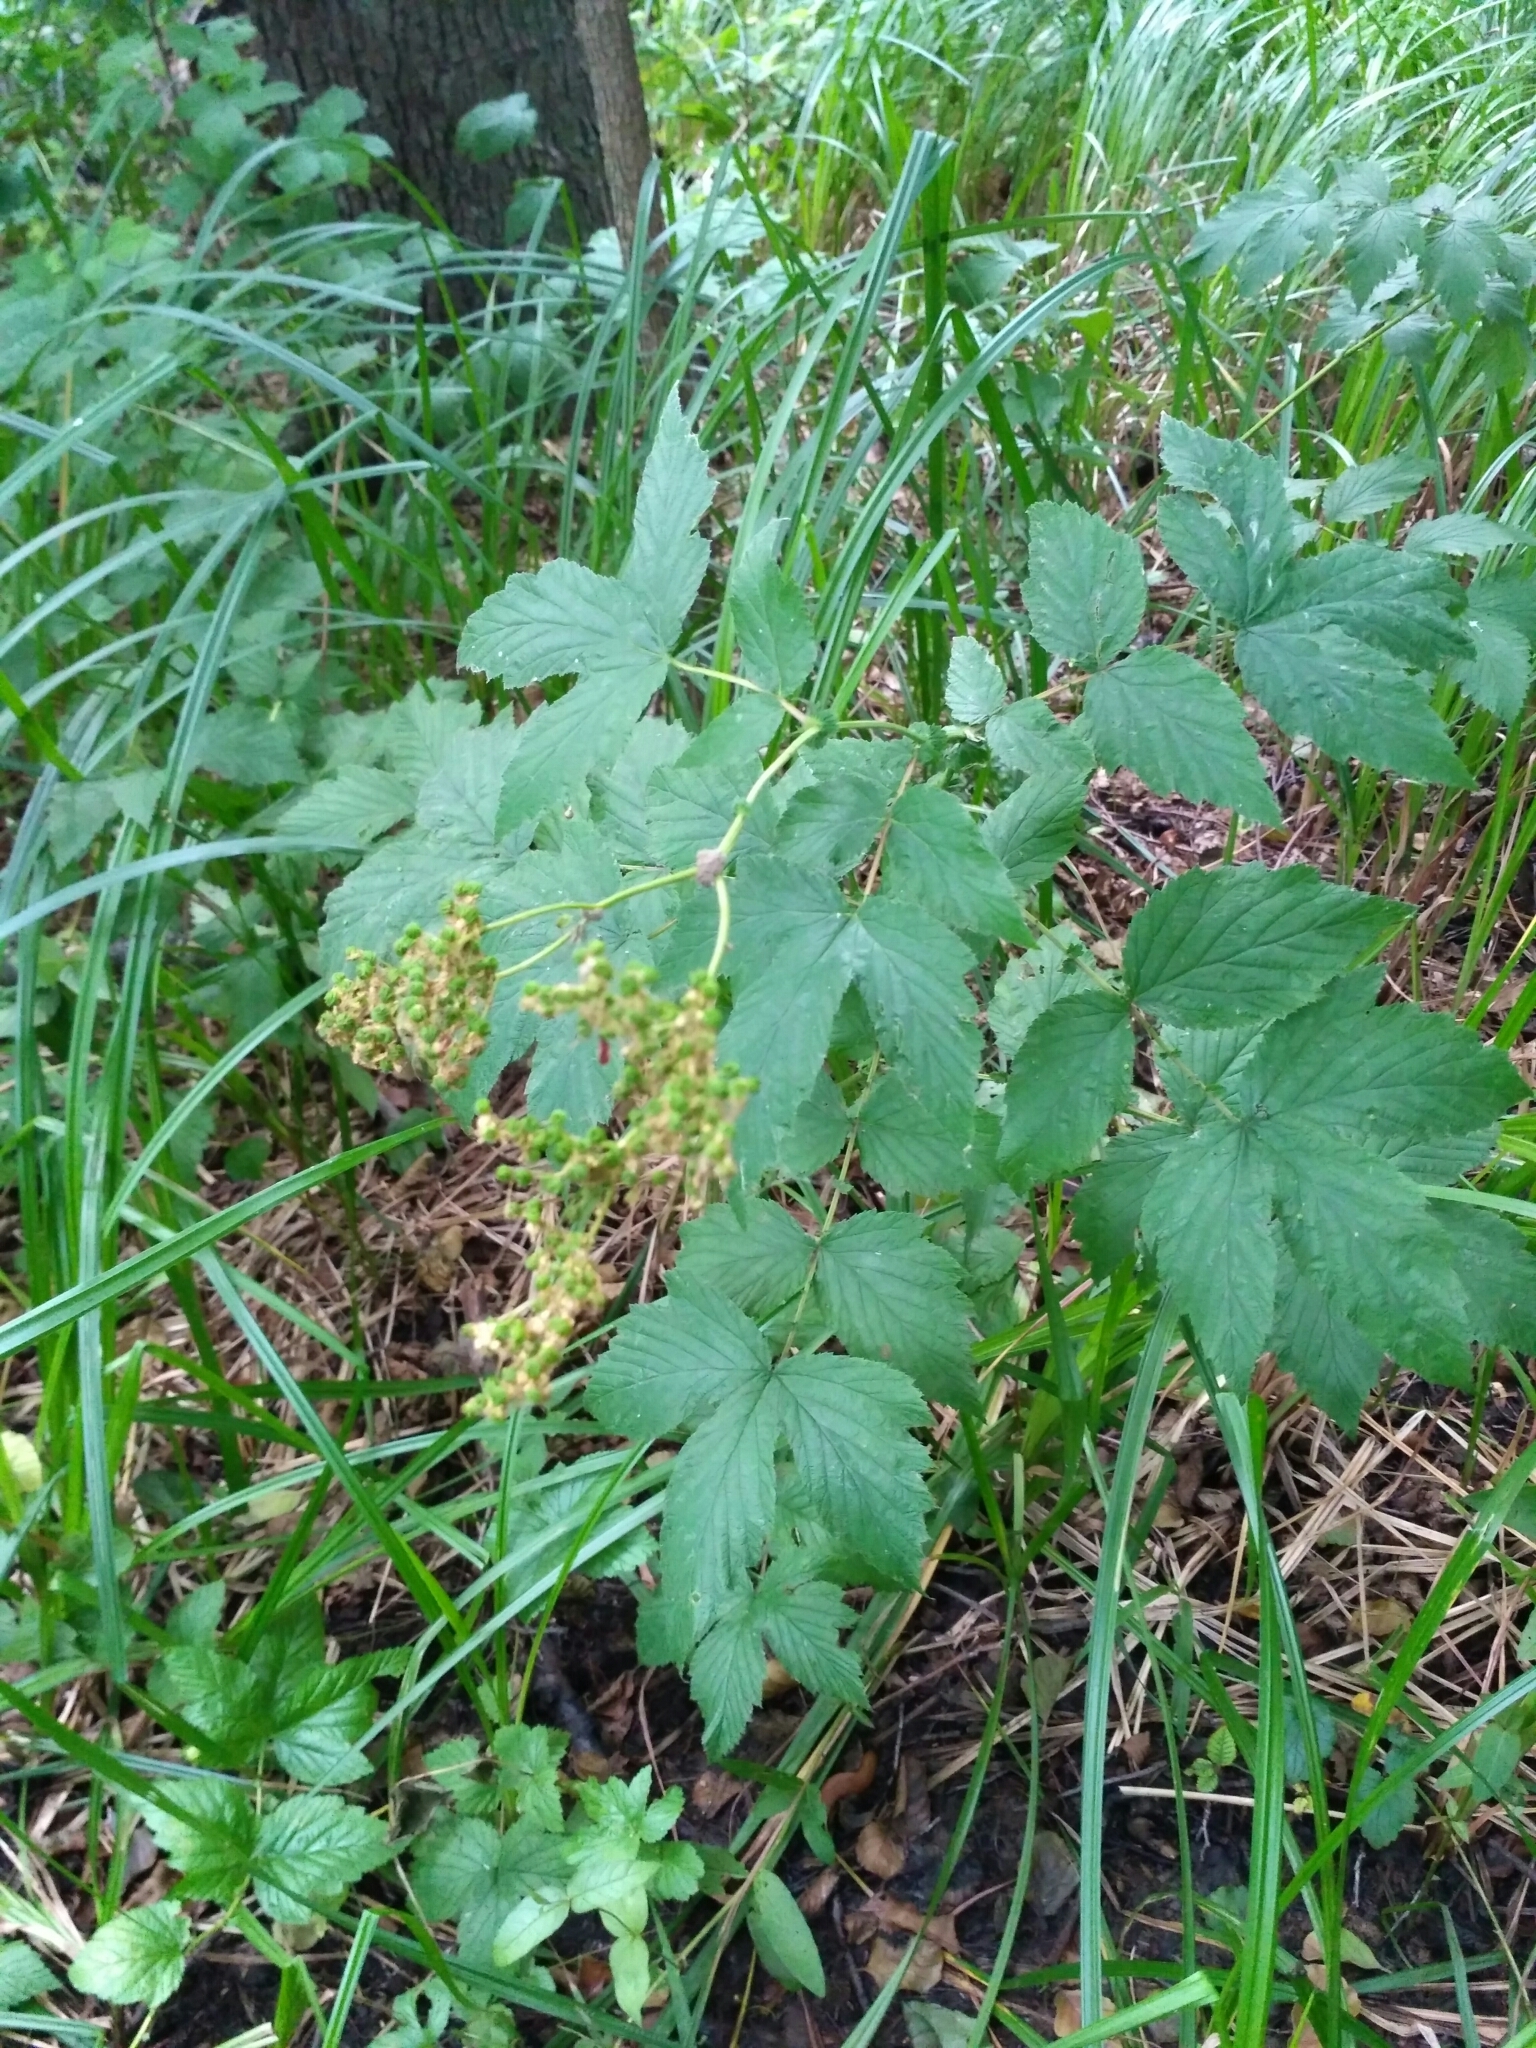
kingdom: Plantae
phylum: Tracheophyta
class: Magnoliopsida
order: Rosales
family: Rosaceae
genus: Filipendula
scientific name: Filipendula ulmaria
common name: Meadowsweet
